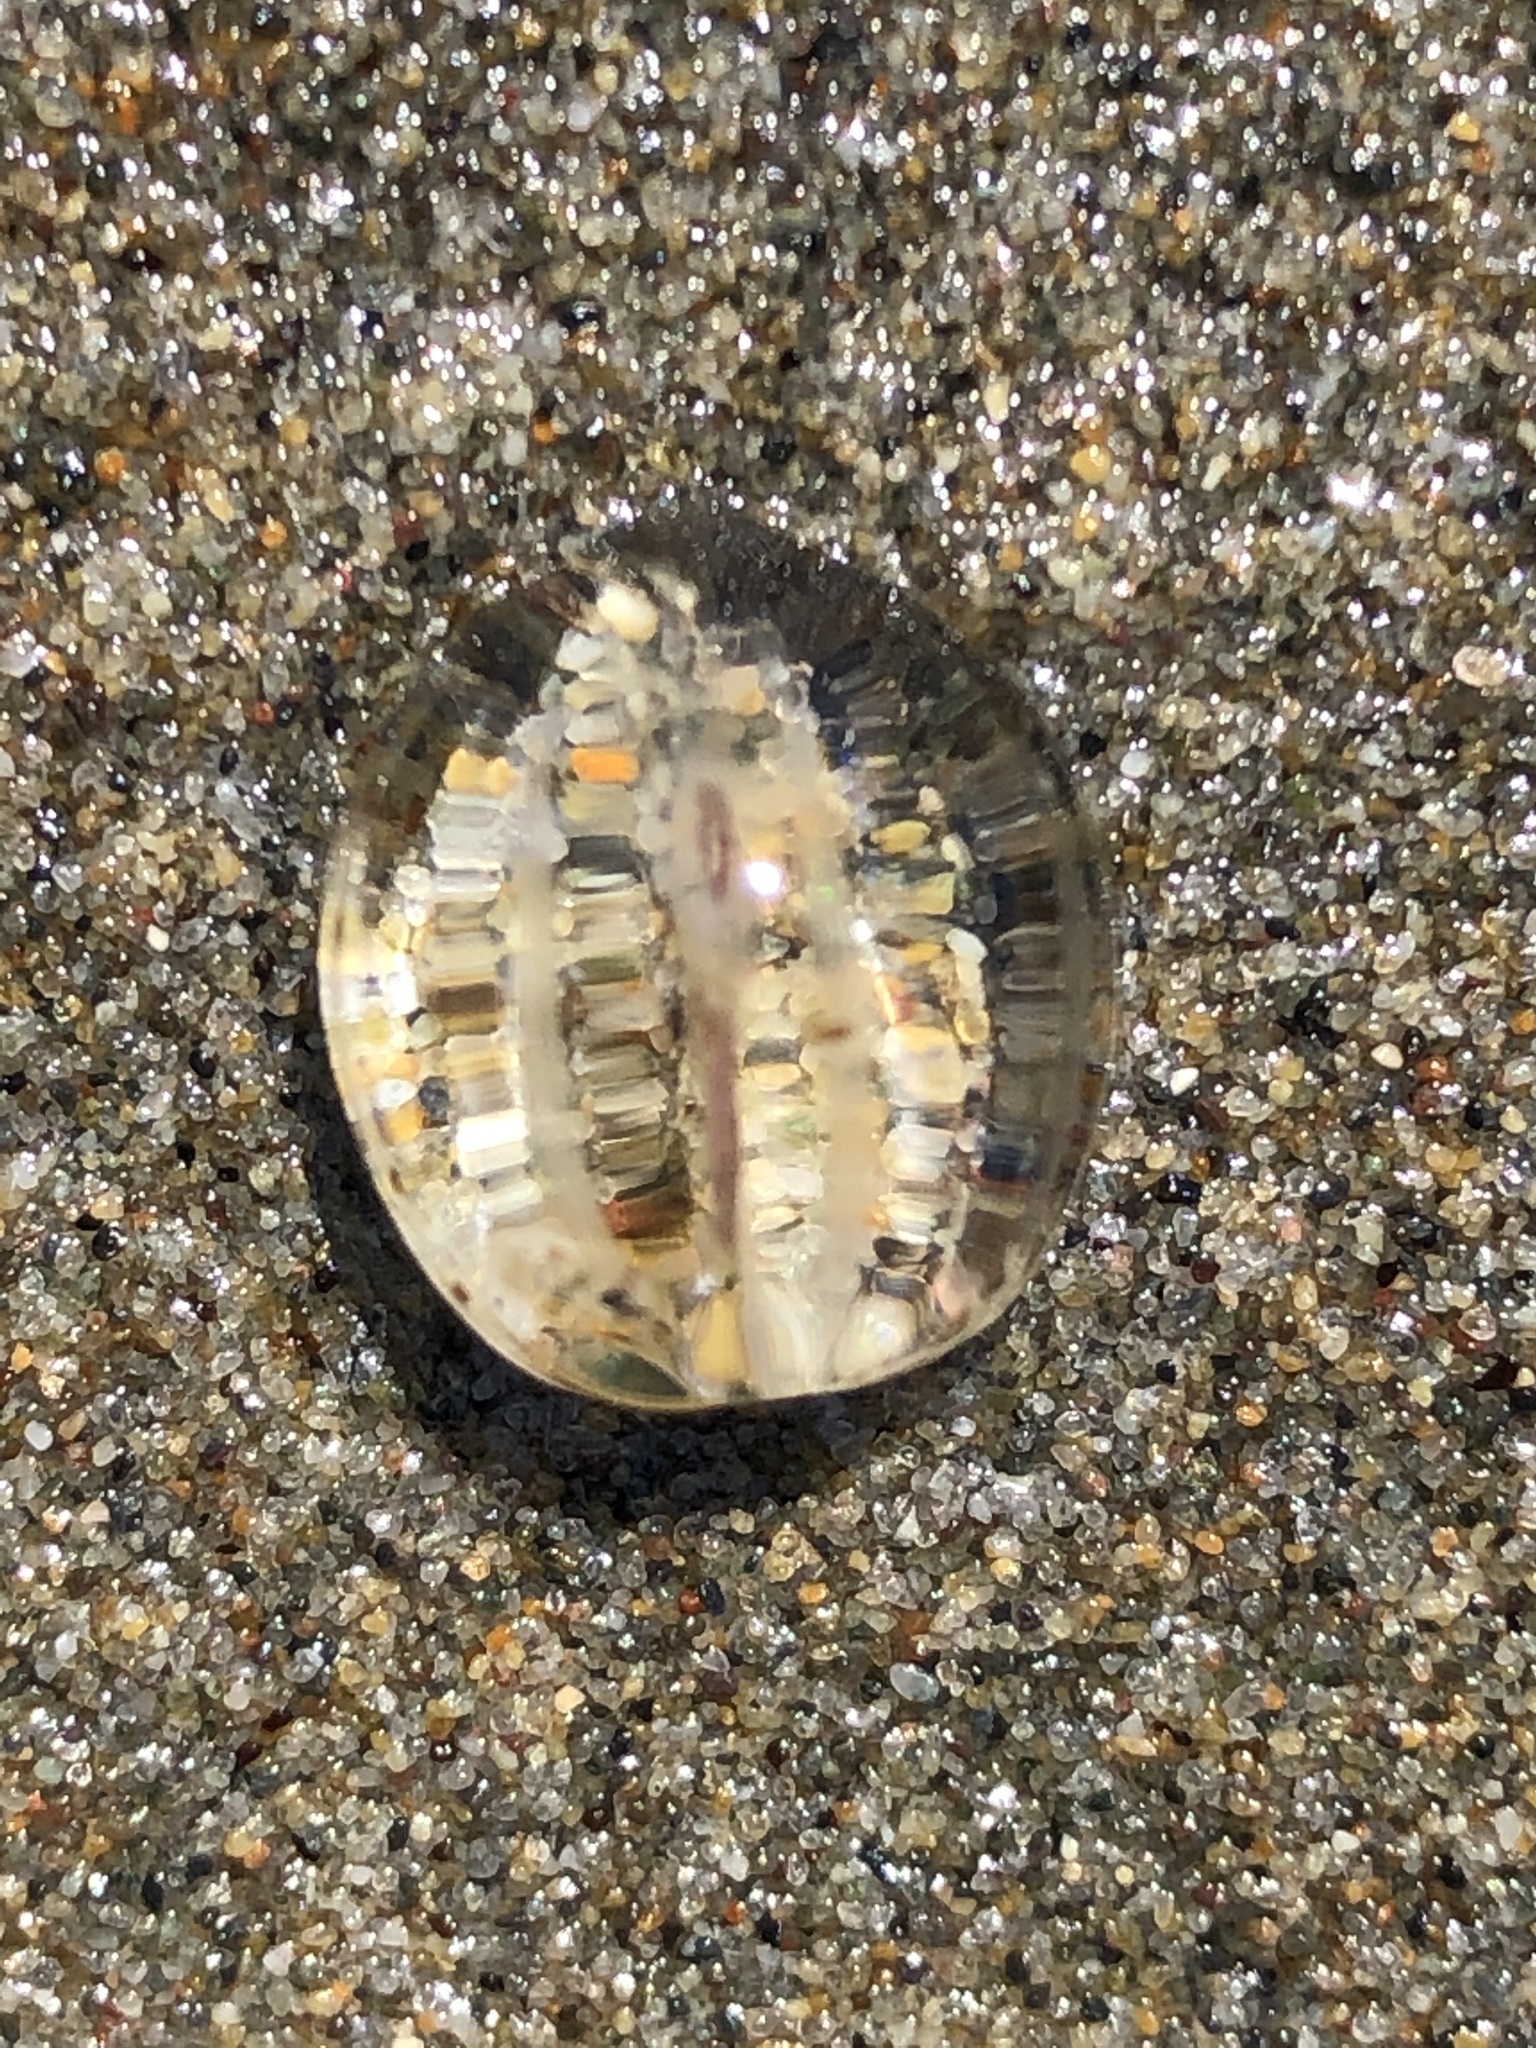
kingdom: Animalia
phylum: Ctenophora
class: Tentaculata
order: Cydippida
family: Pleurobrachiidae
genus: Pleurobrachia
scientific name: Pleurobrachia bachei
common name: Pacific sea gooseberry
